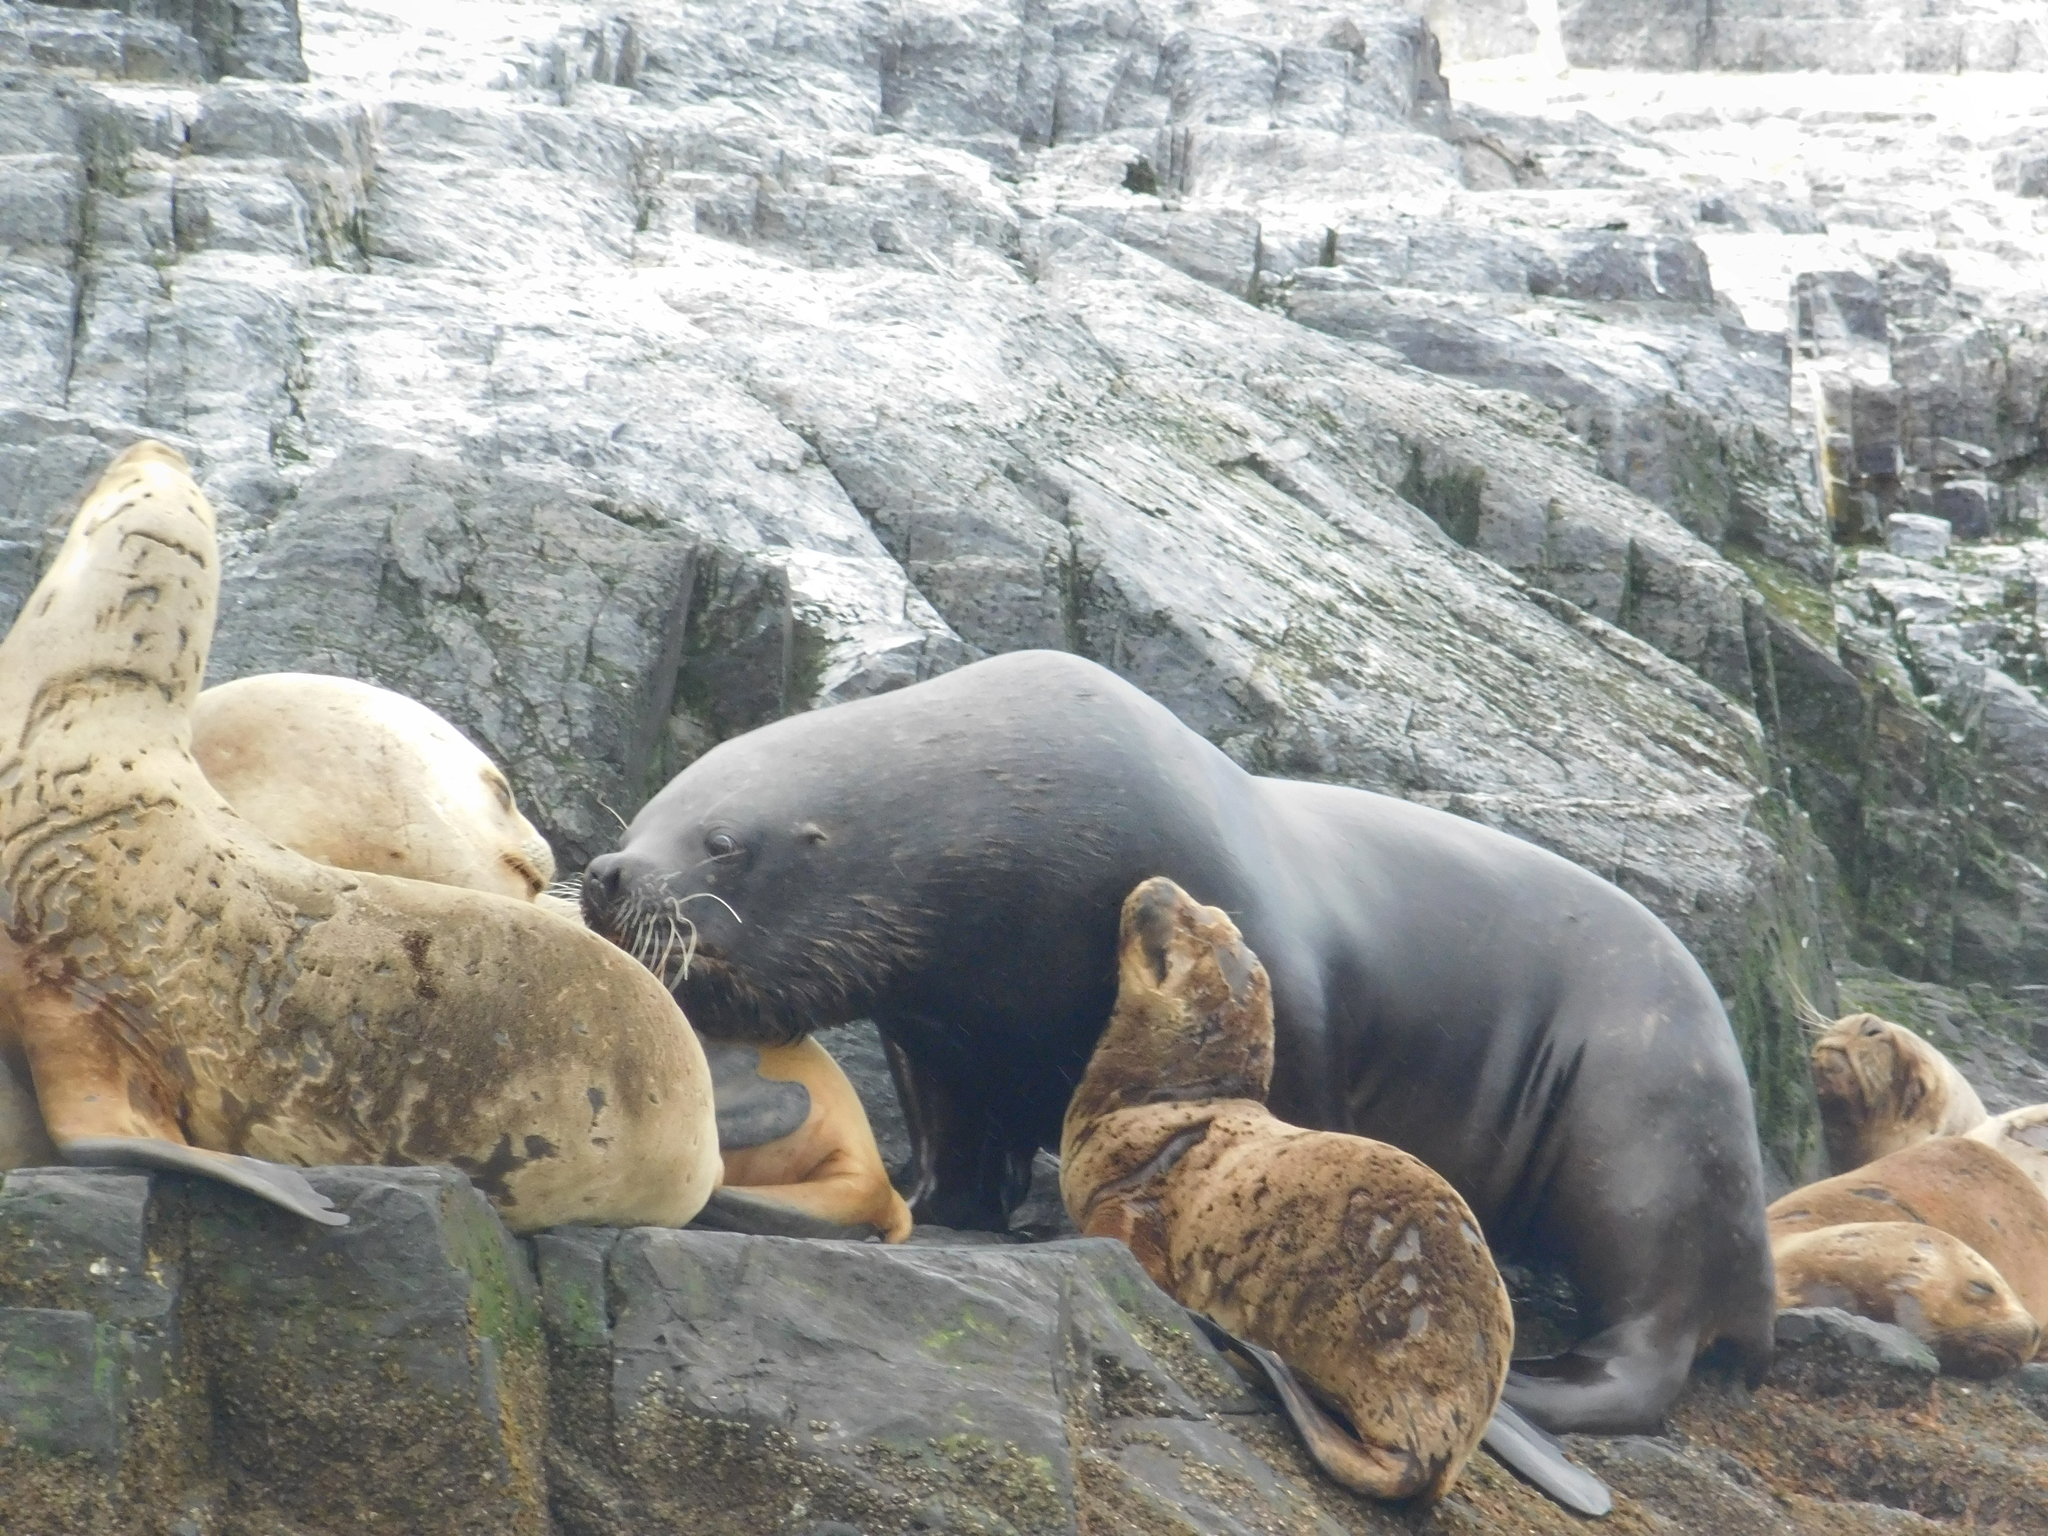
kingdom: Animalia
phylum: Chordata
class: Mammalia
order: Carnivora
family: Otariidae
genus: Otaria
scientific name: Otaria byronia
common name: South american sea lion
